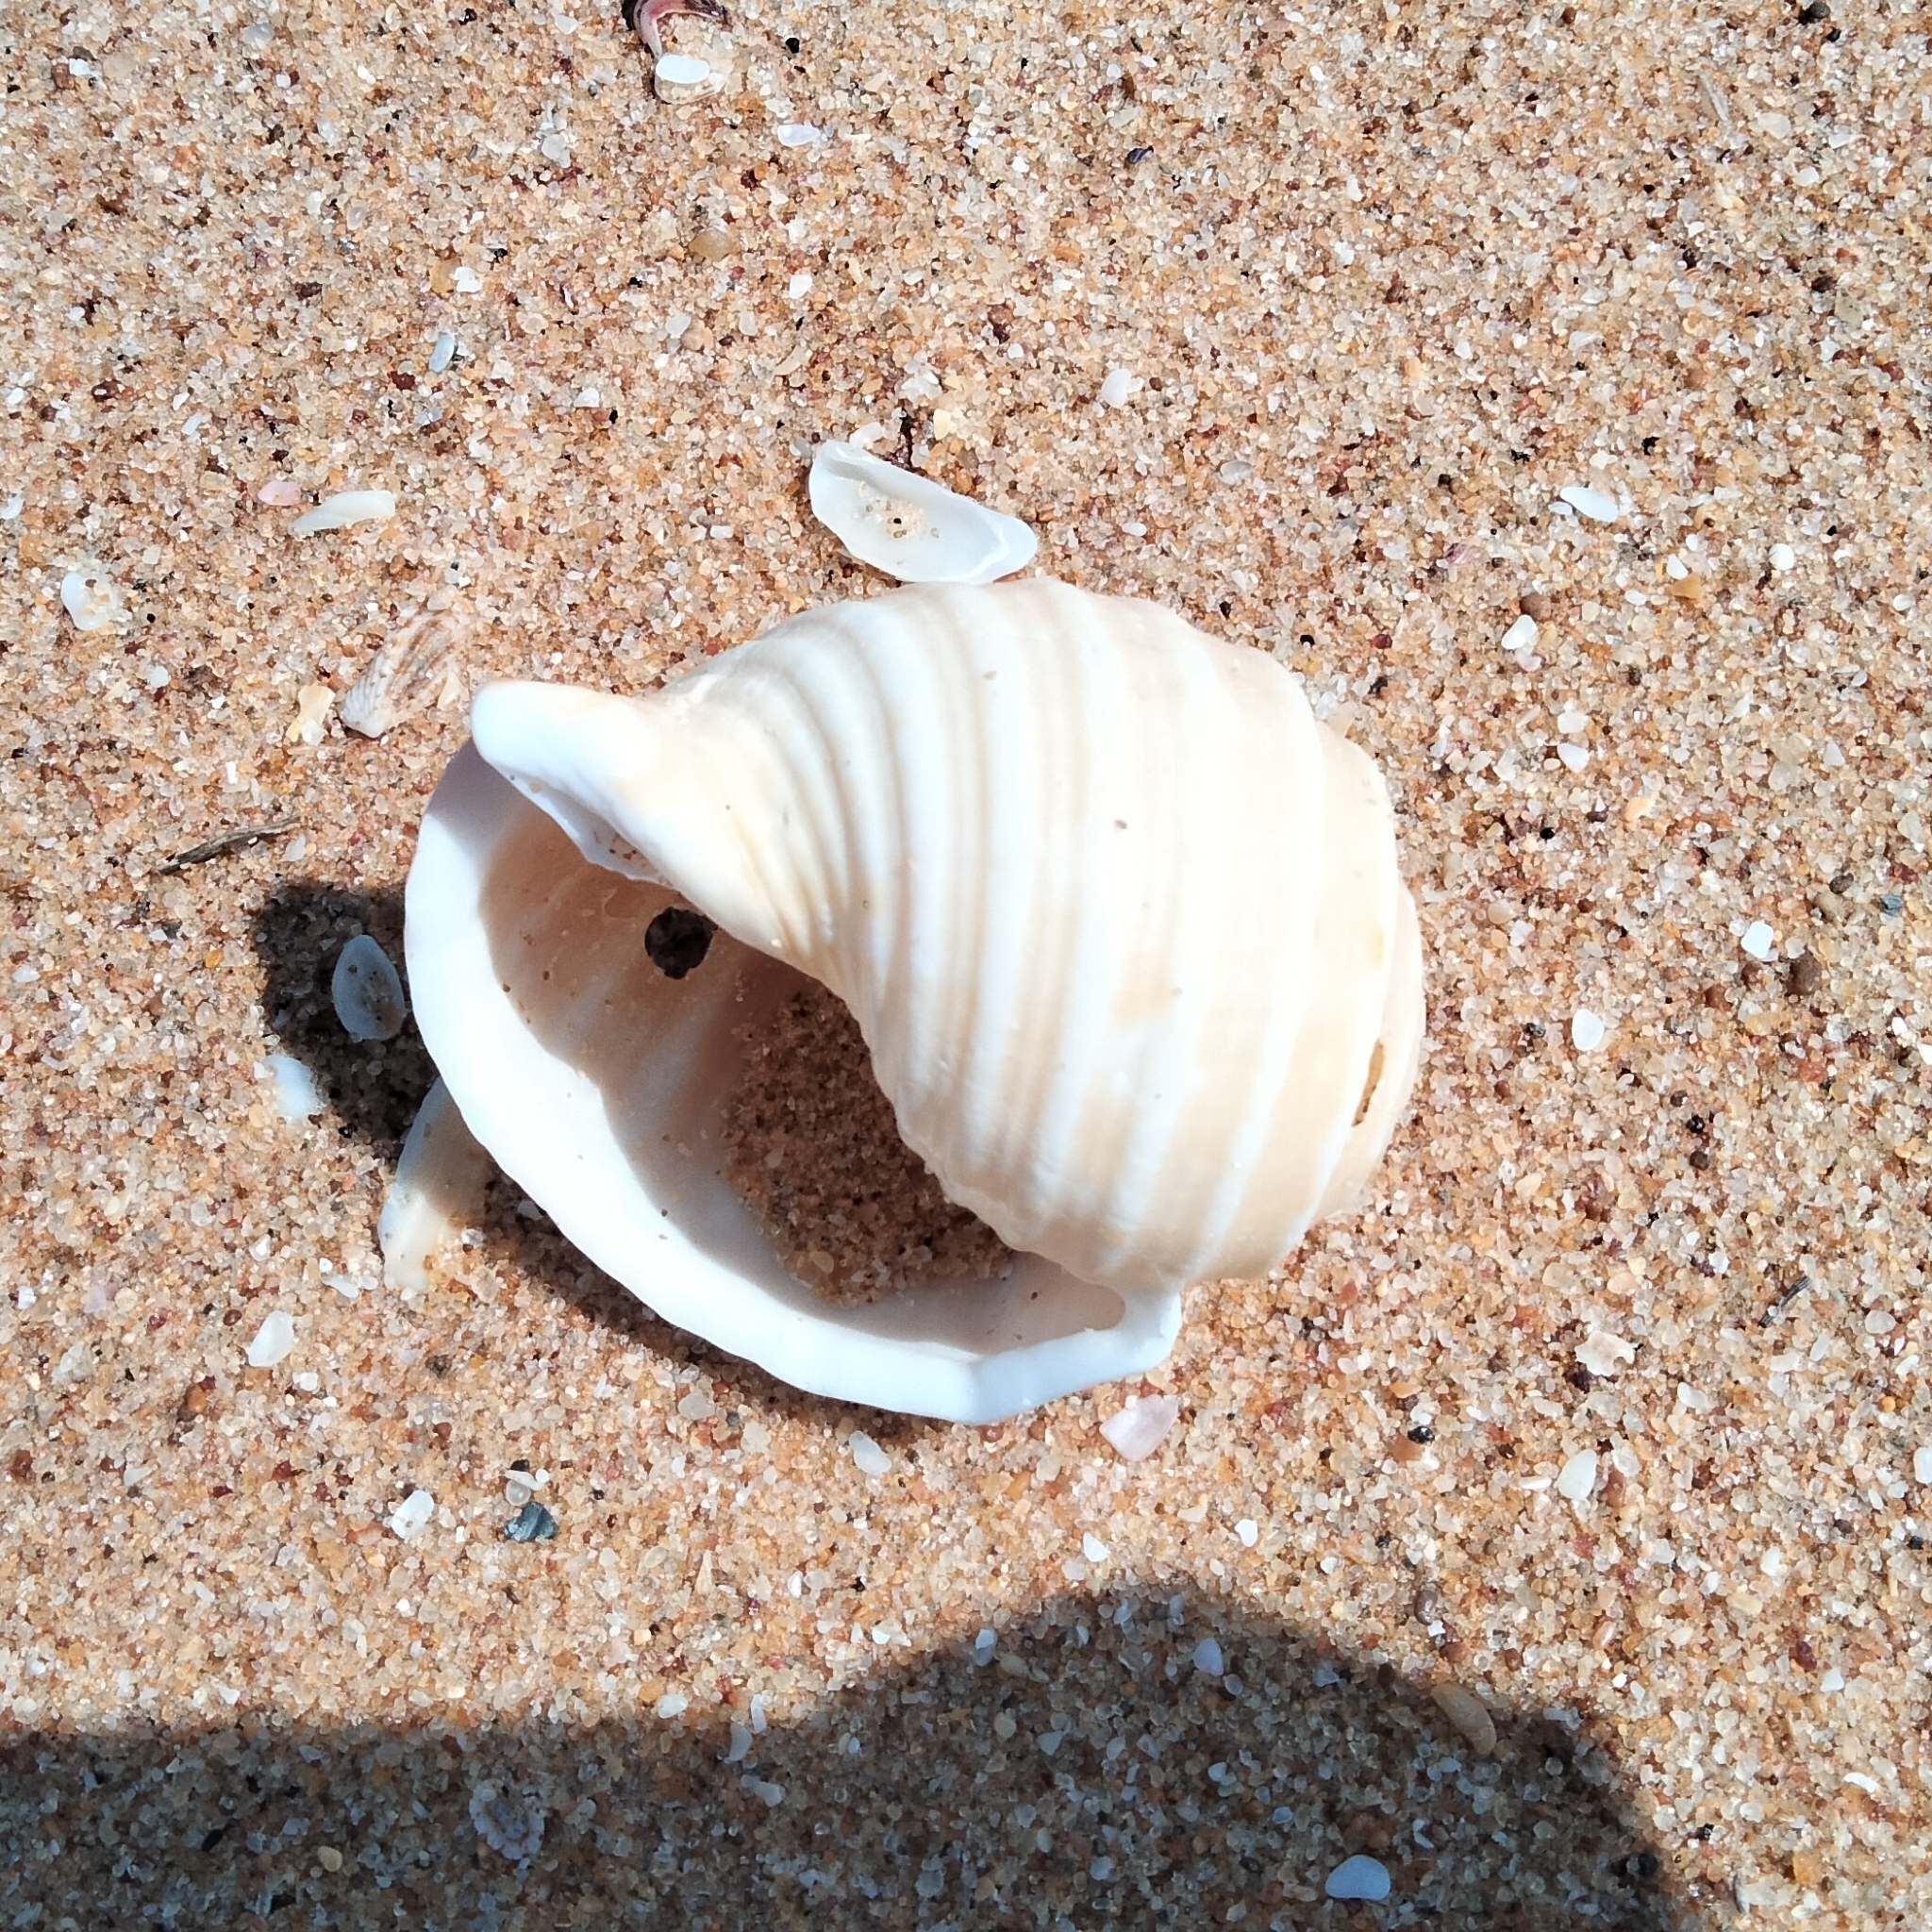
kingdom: Animalia
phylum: Mollusca
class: Gastropoda
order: Littorinimorpha
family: Tonnidae
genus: Tonna
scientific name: Tonna dolium
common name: Spotted tun
